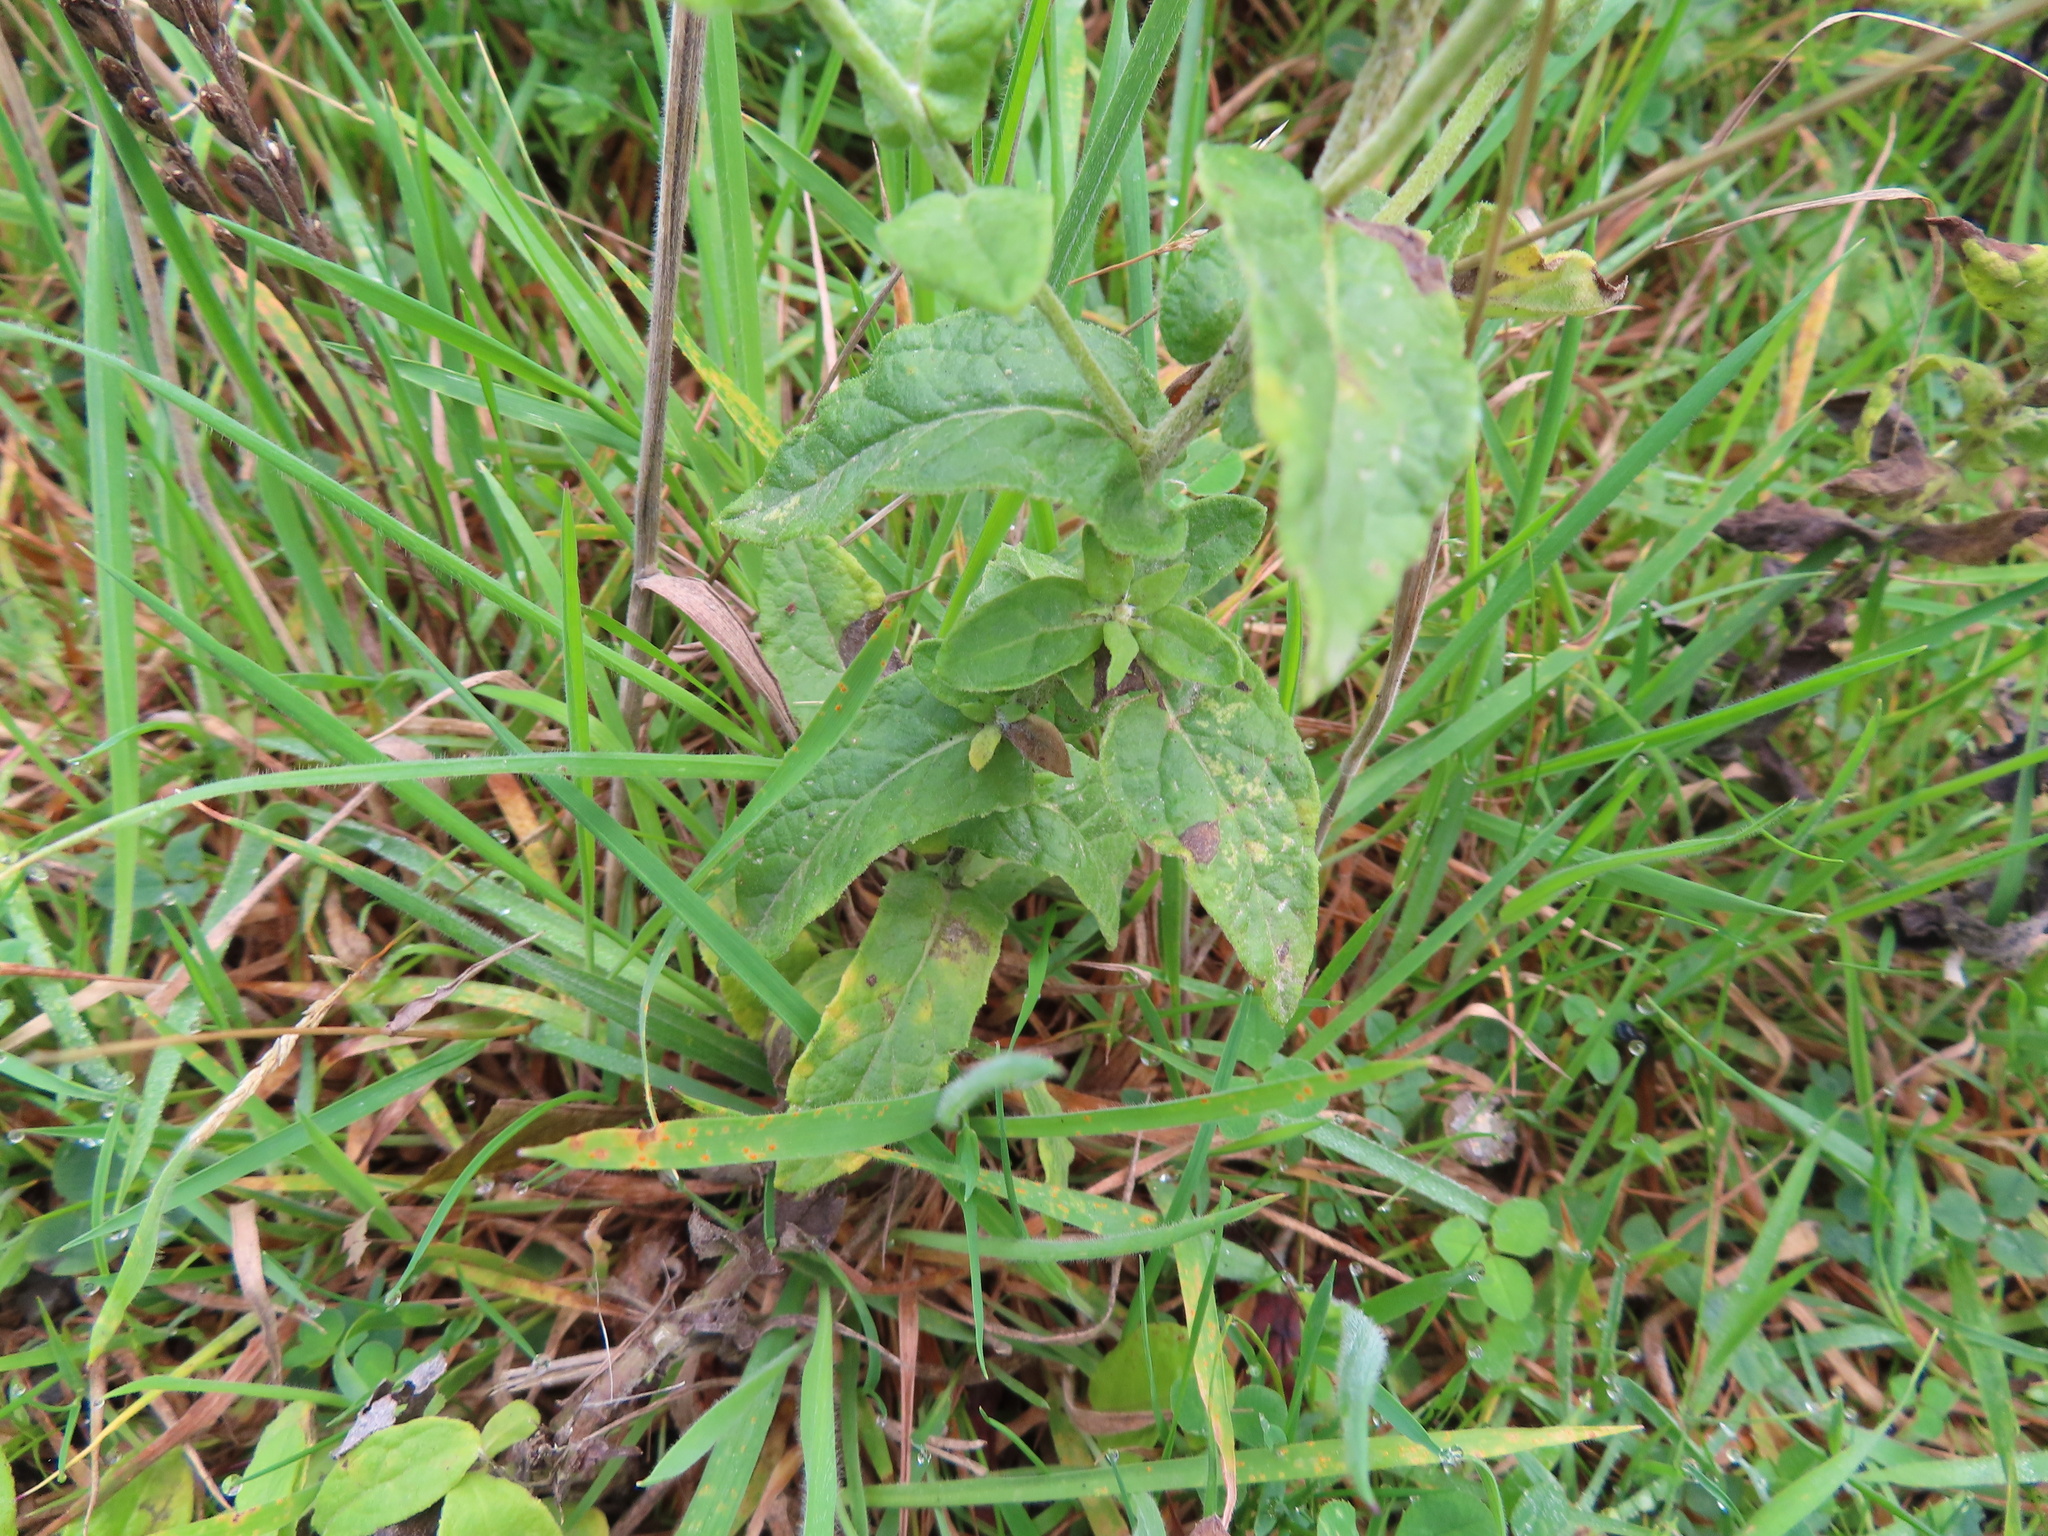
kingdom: Plantae
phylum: Tracheophyta
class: Magnoliopsida
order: Asterales
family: Asteraceae
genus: Pulicaria
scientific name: Pulicaria dysenterica
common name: Common fleabane
